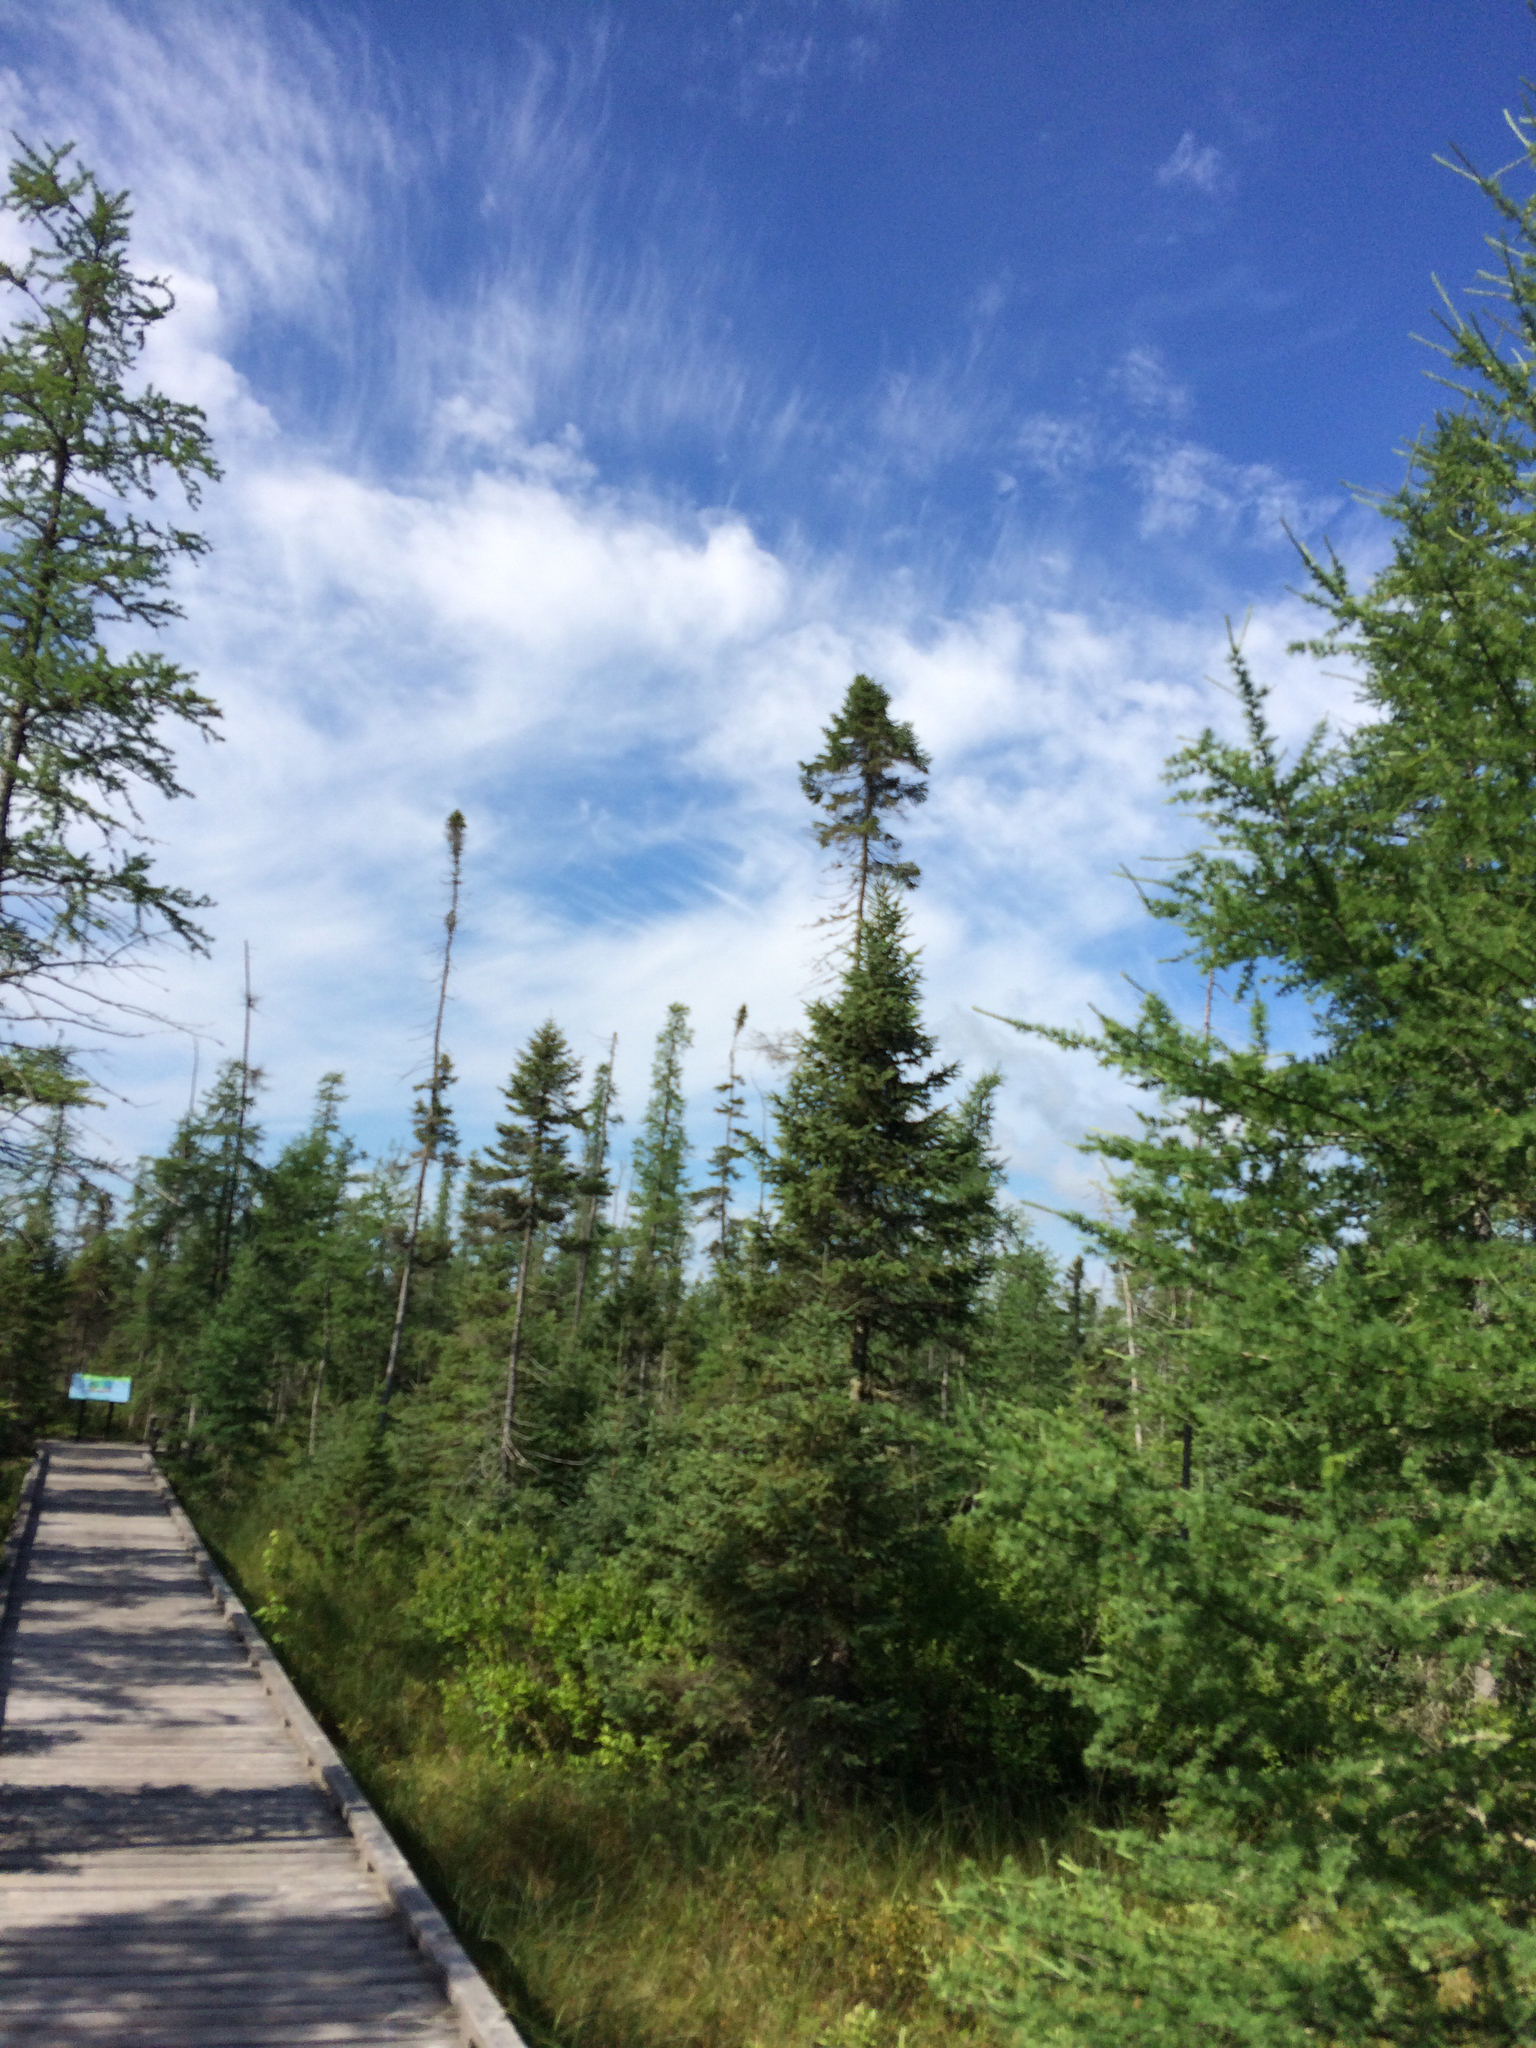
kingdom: Plantae
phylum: Tracheophyta
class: Pinopsida
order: Pinales
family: Pinaceae
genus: Picea
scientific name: Picea mariana
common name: Black spruce
